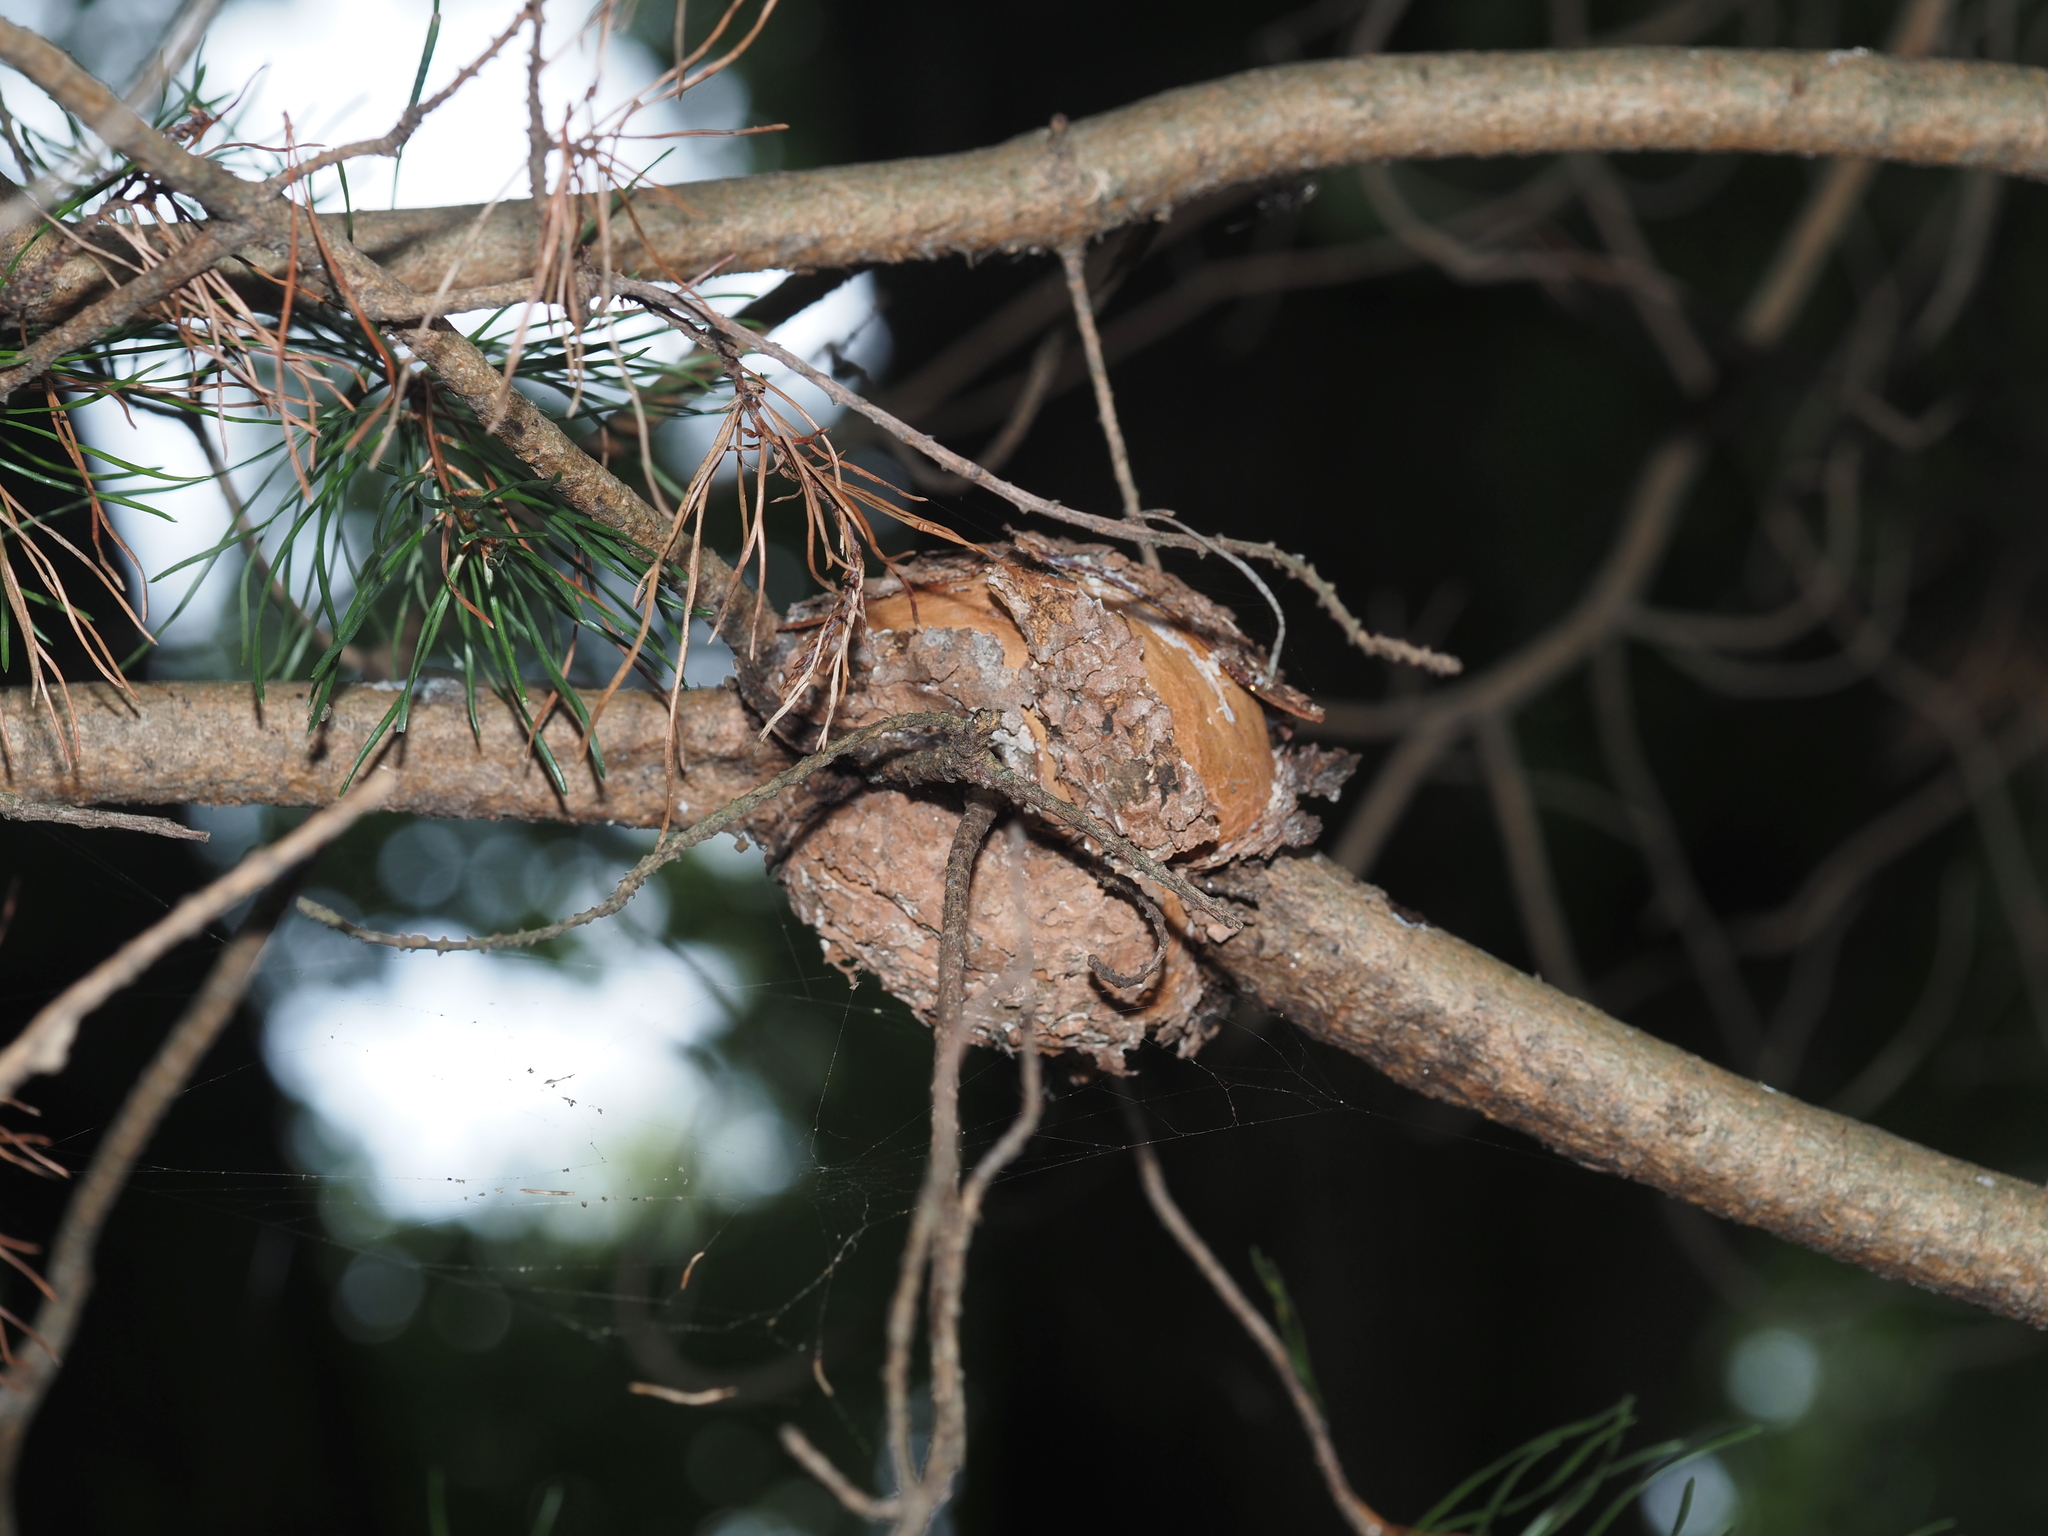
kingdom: Fungi
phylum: Basidiomycota
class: Pucciniomycetes
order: Pucciniales
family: Cronartiaceae
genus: Cronartium
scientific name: Cronartium quercuum
